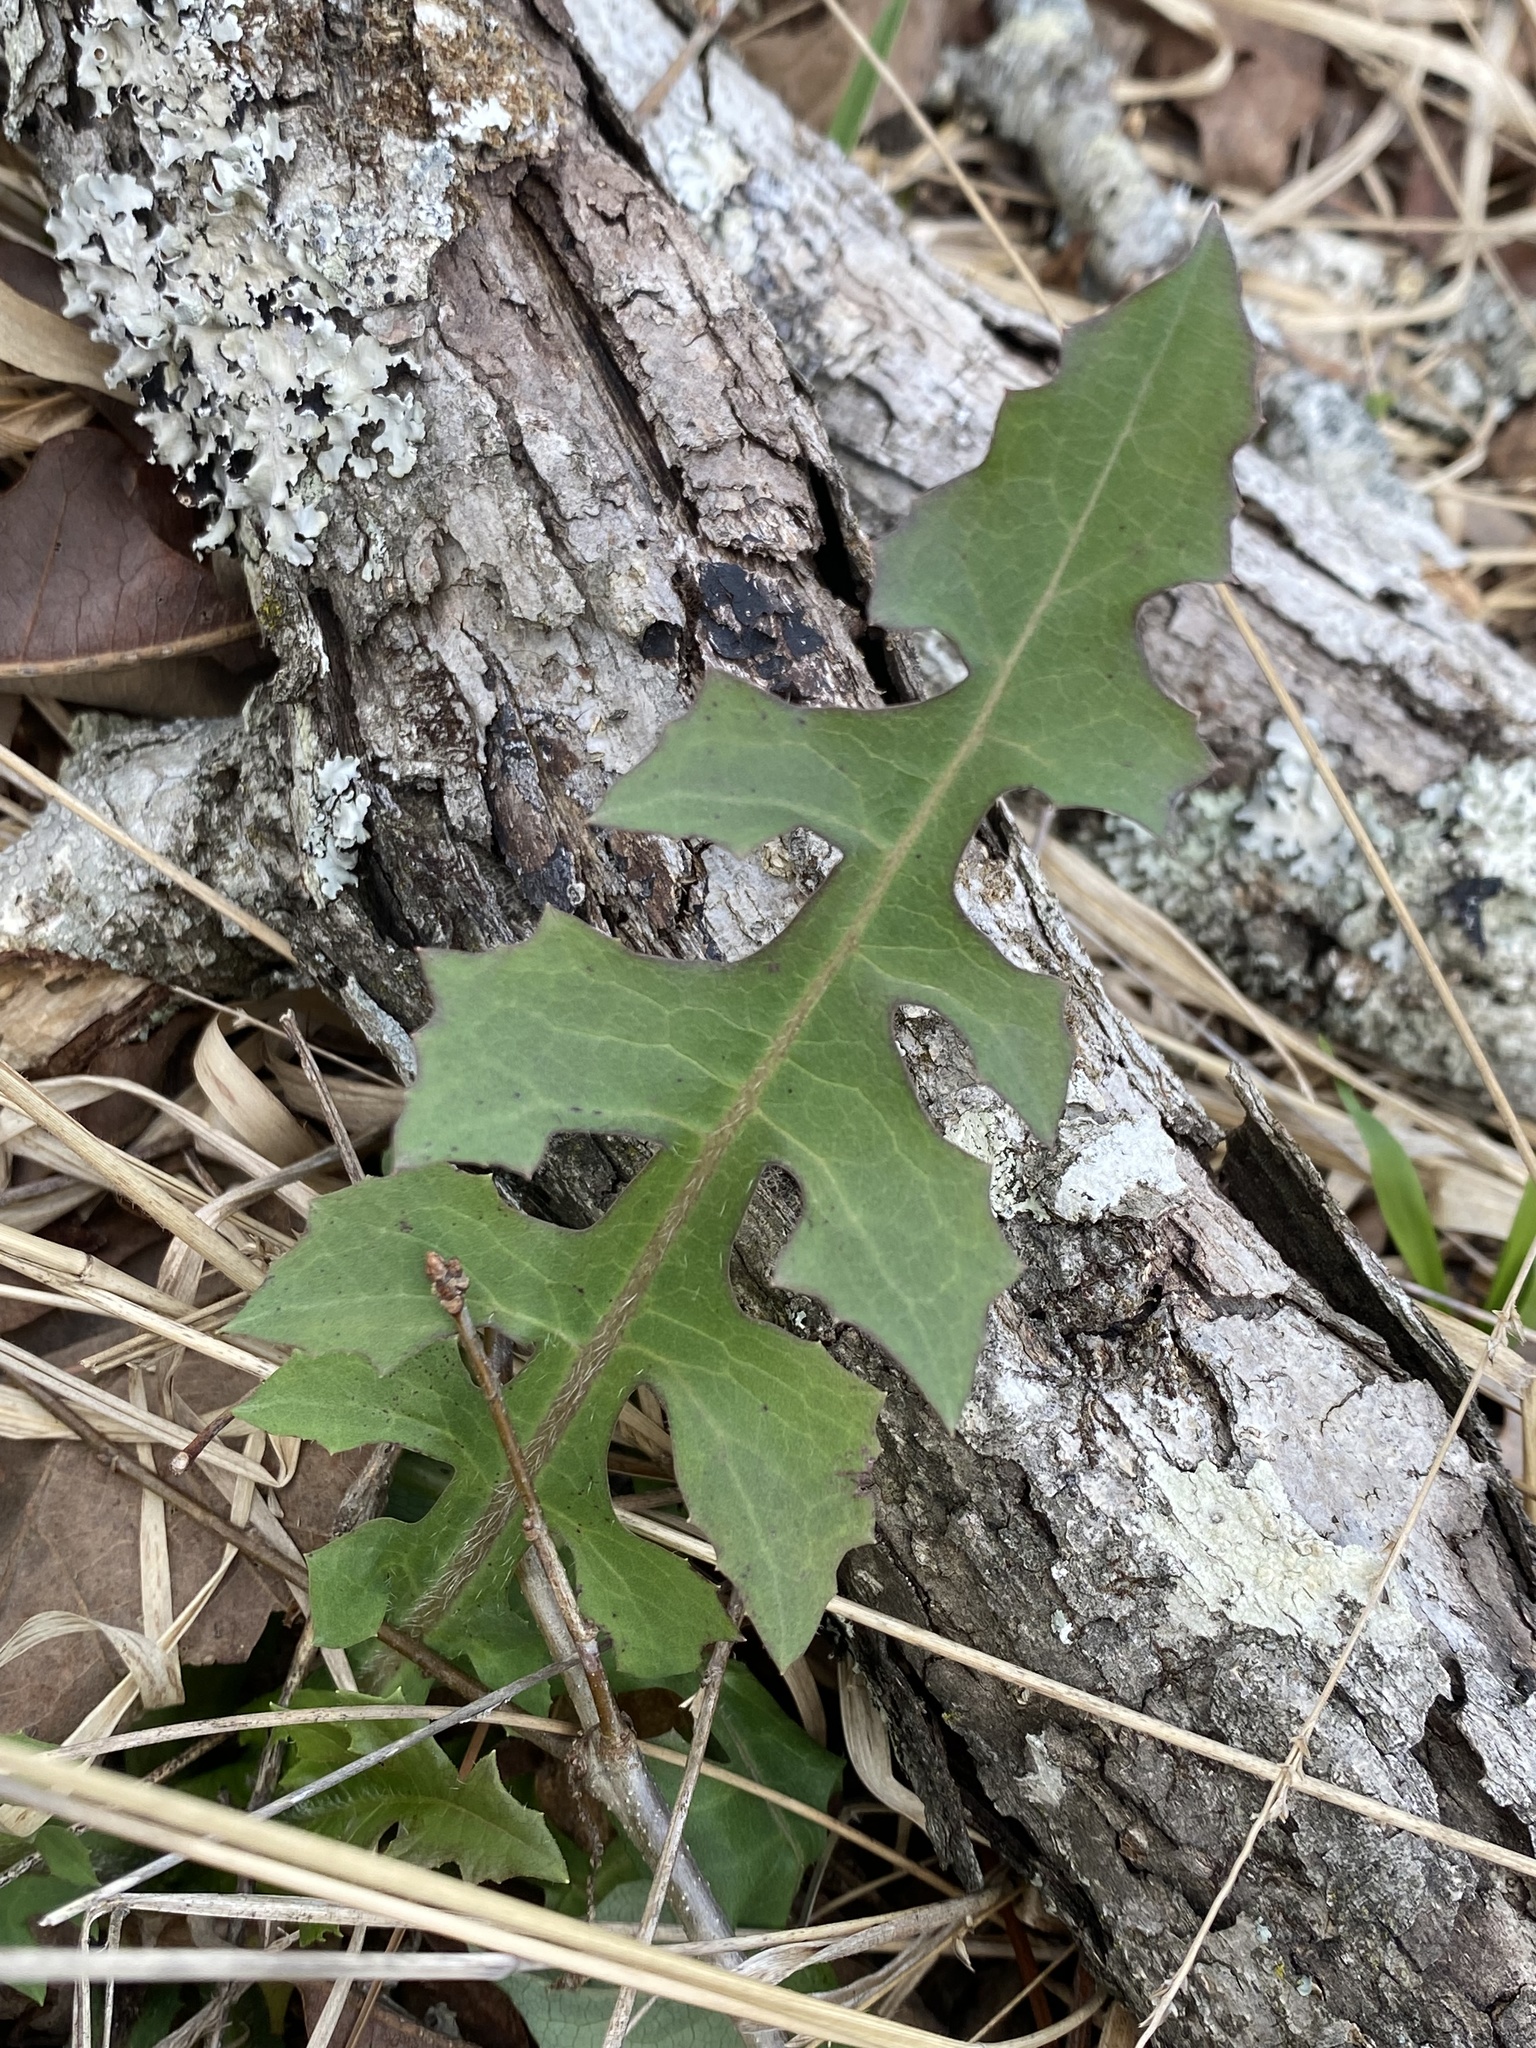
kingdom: Plantae
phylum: Tracheophyta
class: Magnoliopsida
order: Asterales
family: Asteraceae
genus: Lactuca
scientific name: Lactuca canadensis
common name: Canada lettuce
